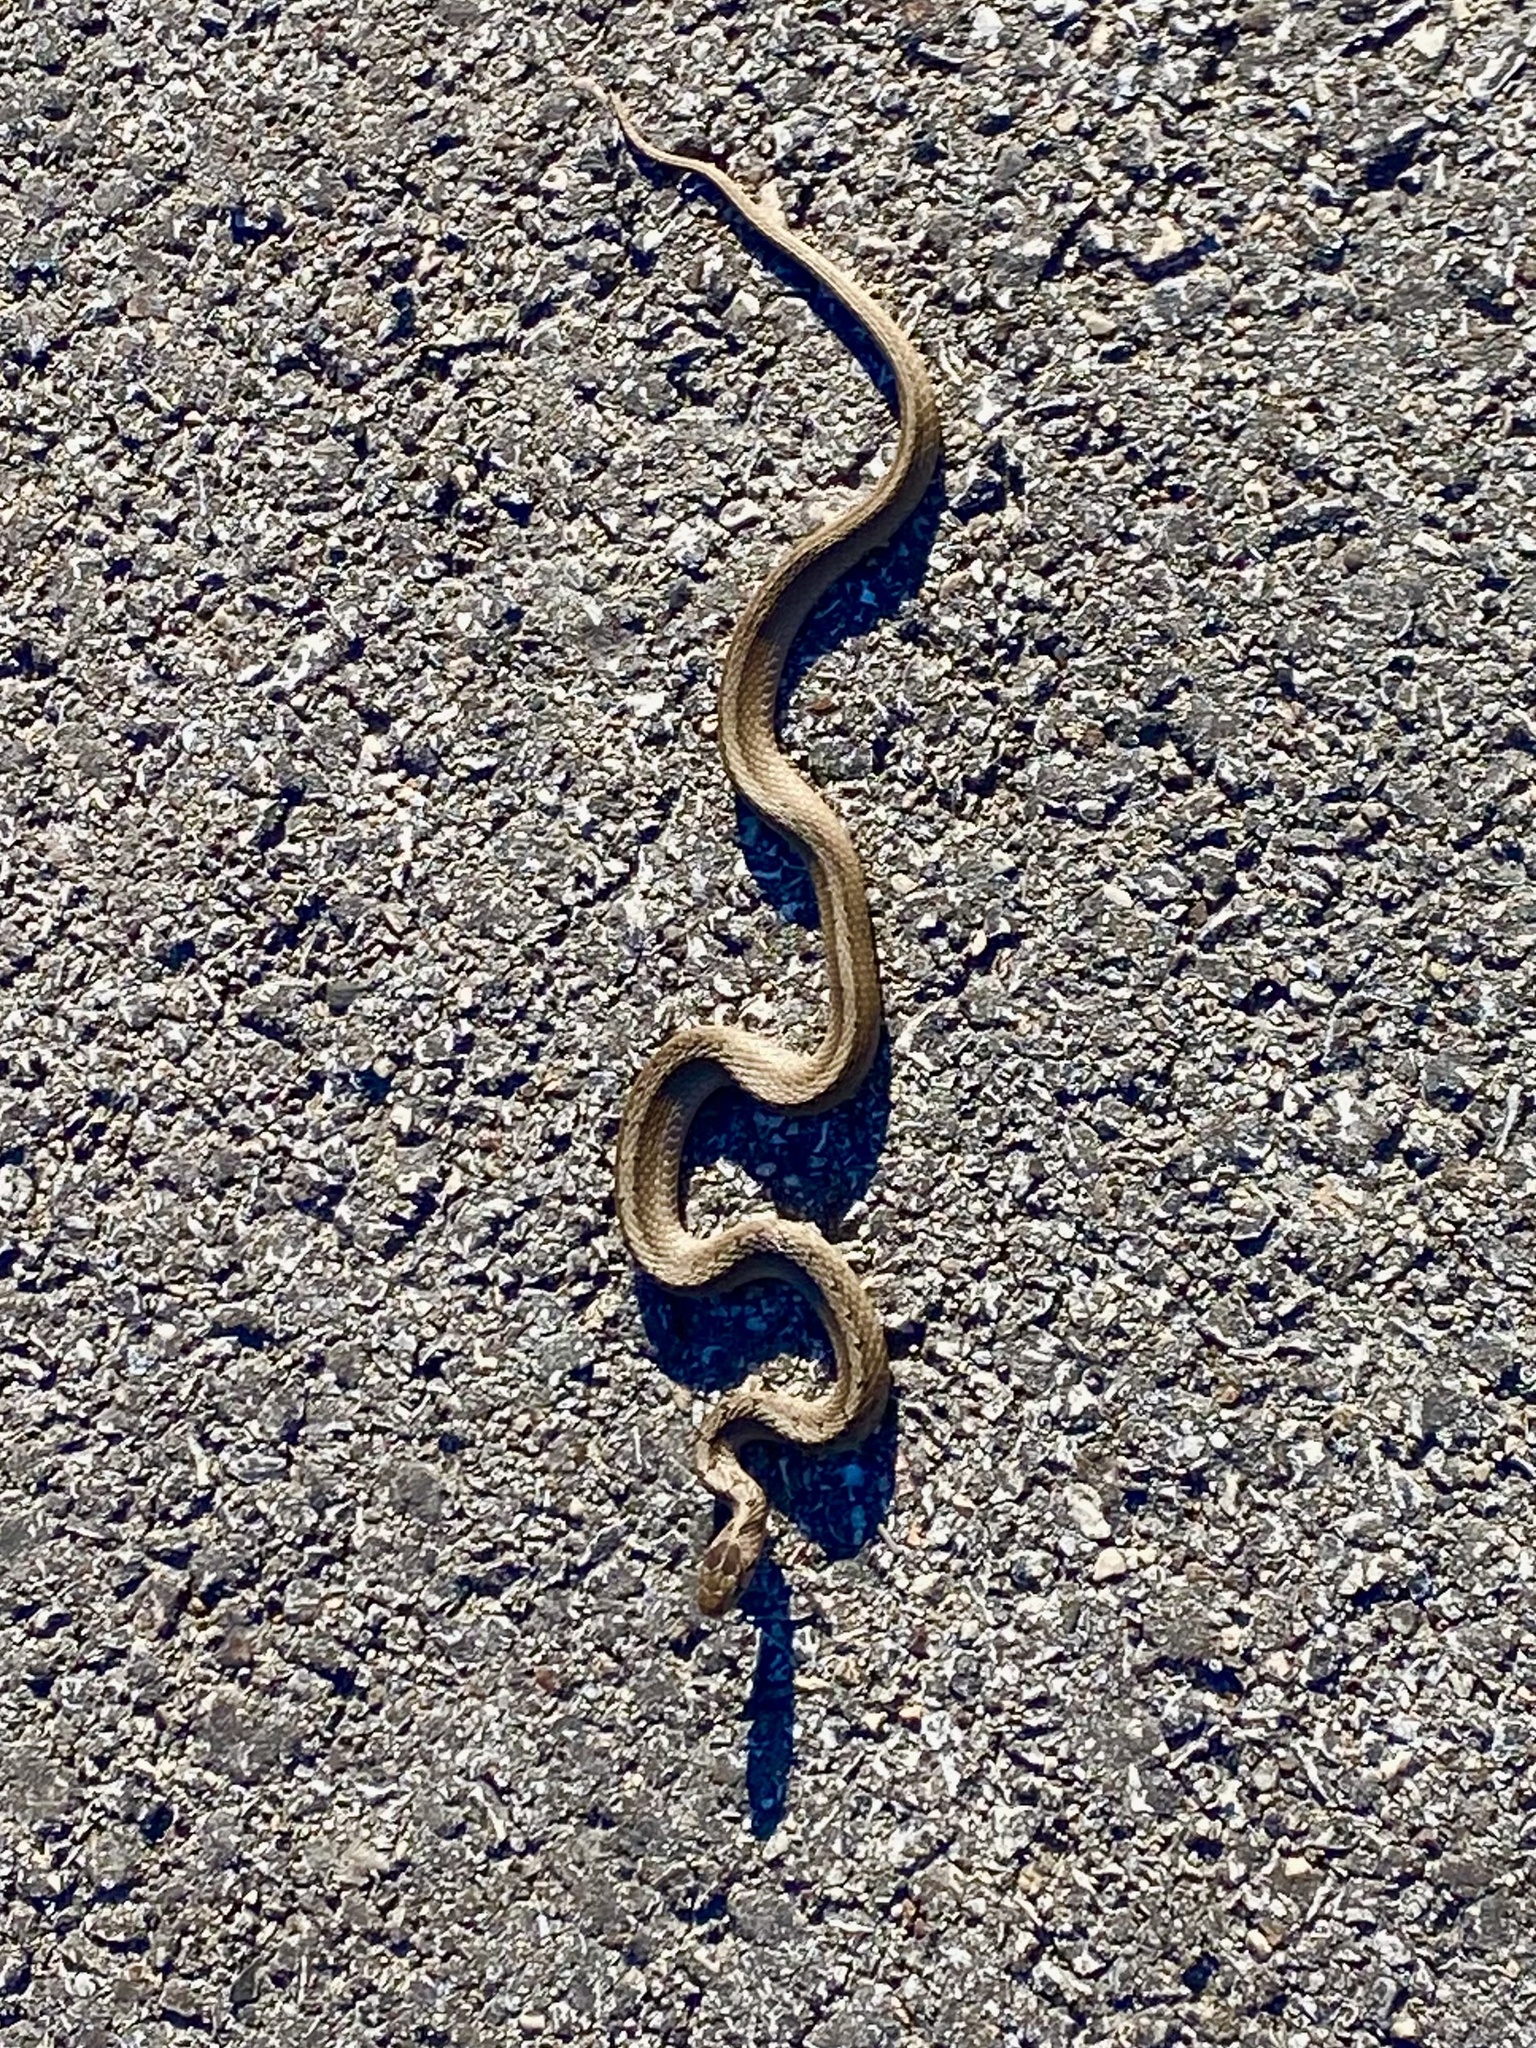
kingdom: Animalia
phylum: Chordata
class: Squamata
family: Colubridae
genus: Storeria
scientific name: Storeria dekayi
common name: (dekay’s) brown snake
